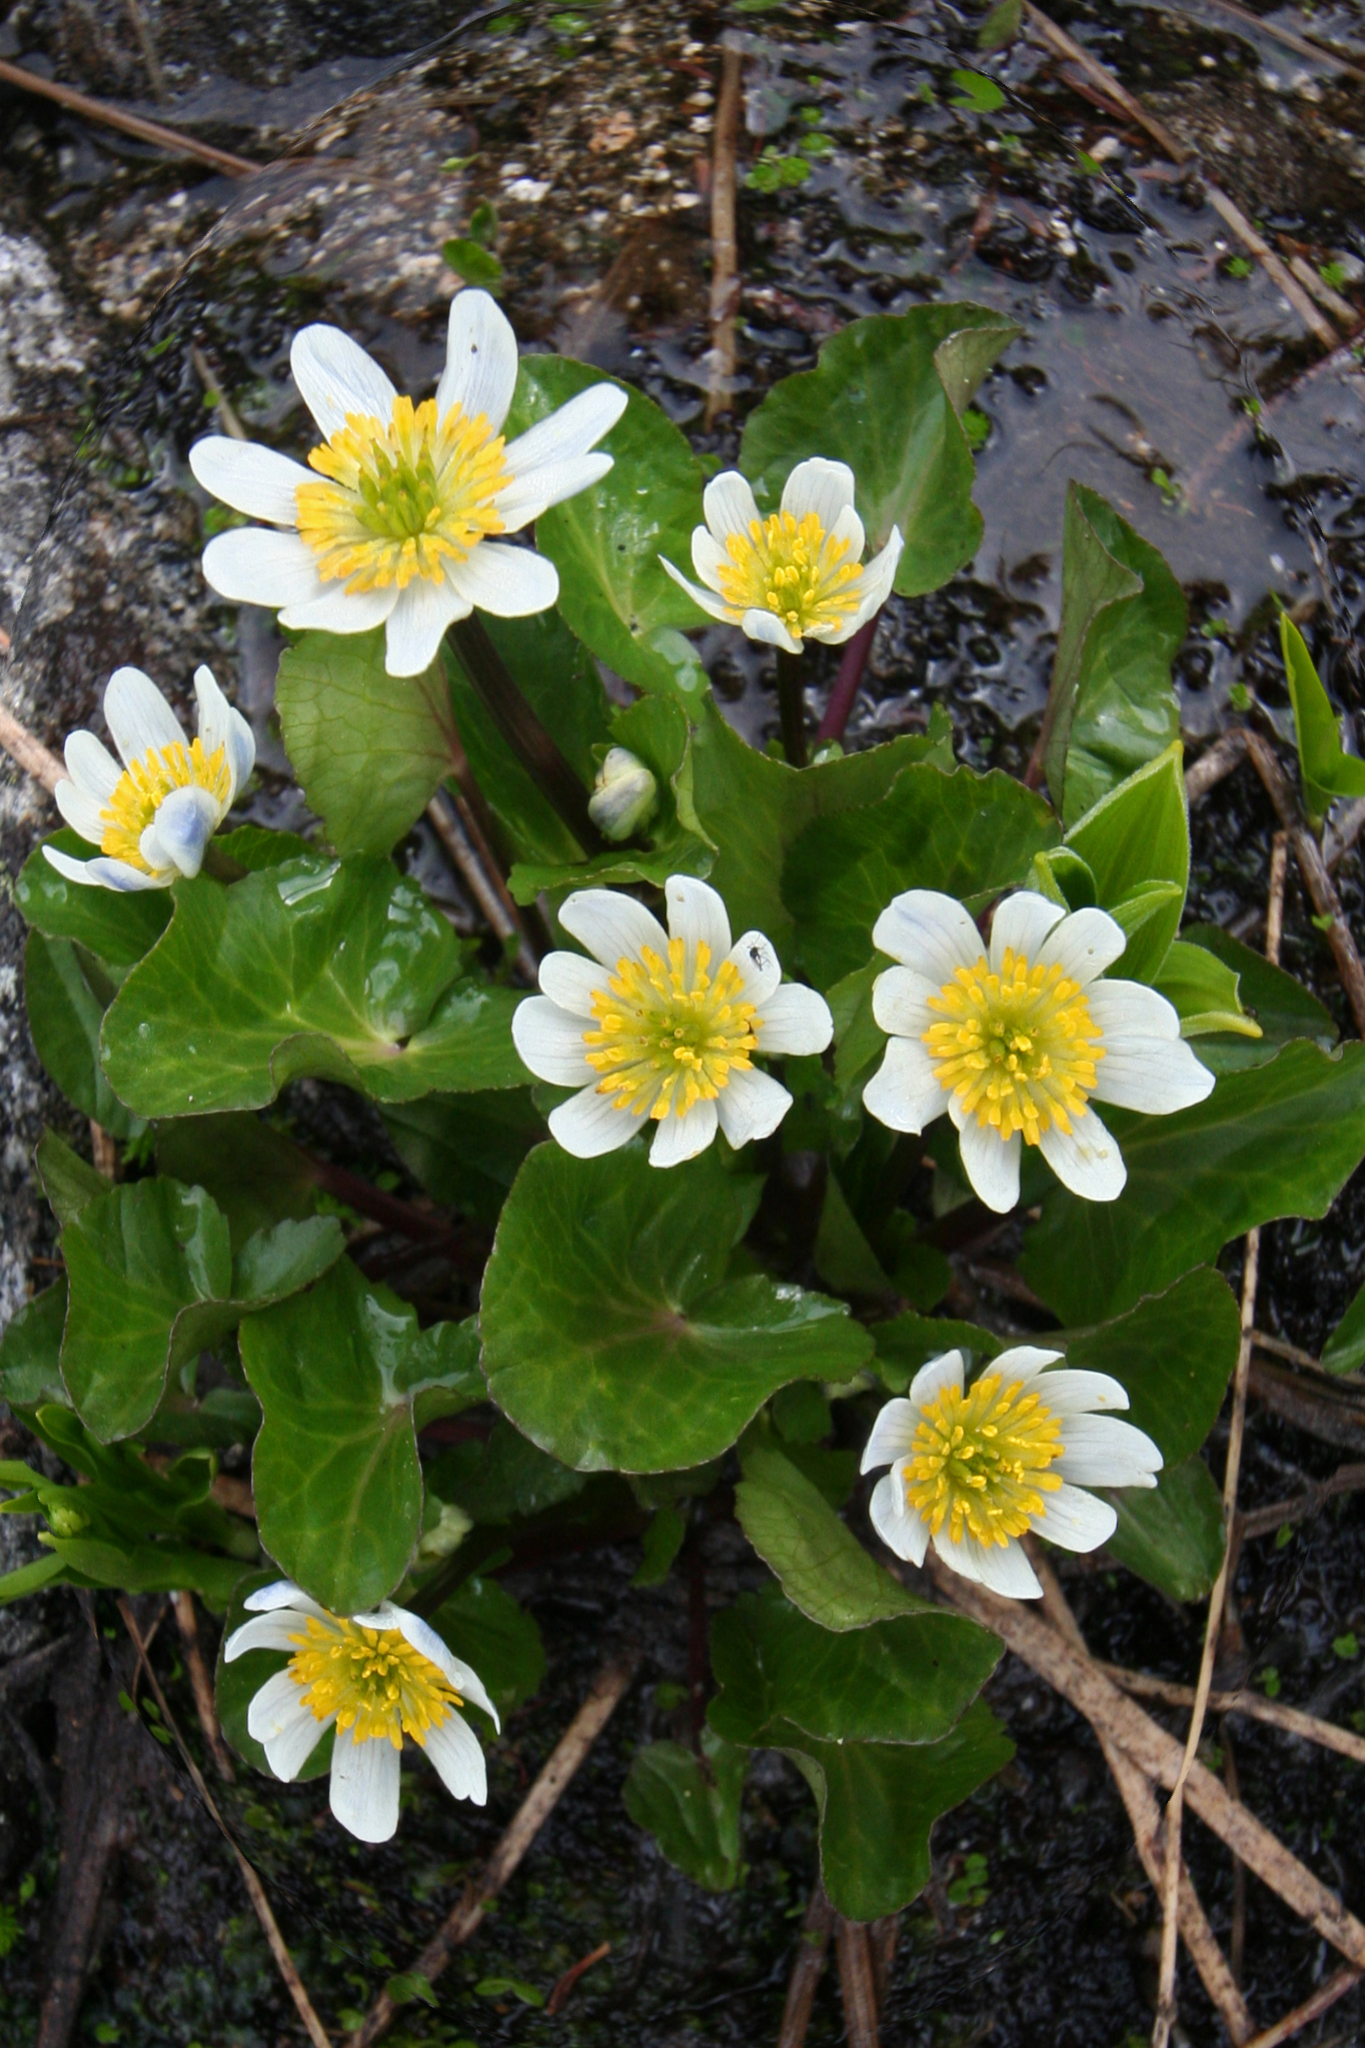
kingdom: Plantae
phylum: Tracheophyta
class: Magnoliopsida
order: Ranunculales
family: Ranunculaceae
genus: Caltha
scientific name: Caltha leptosepala
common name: Elkslip
